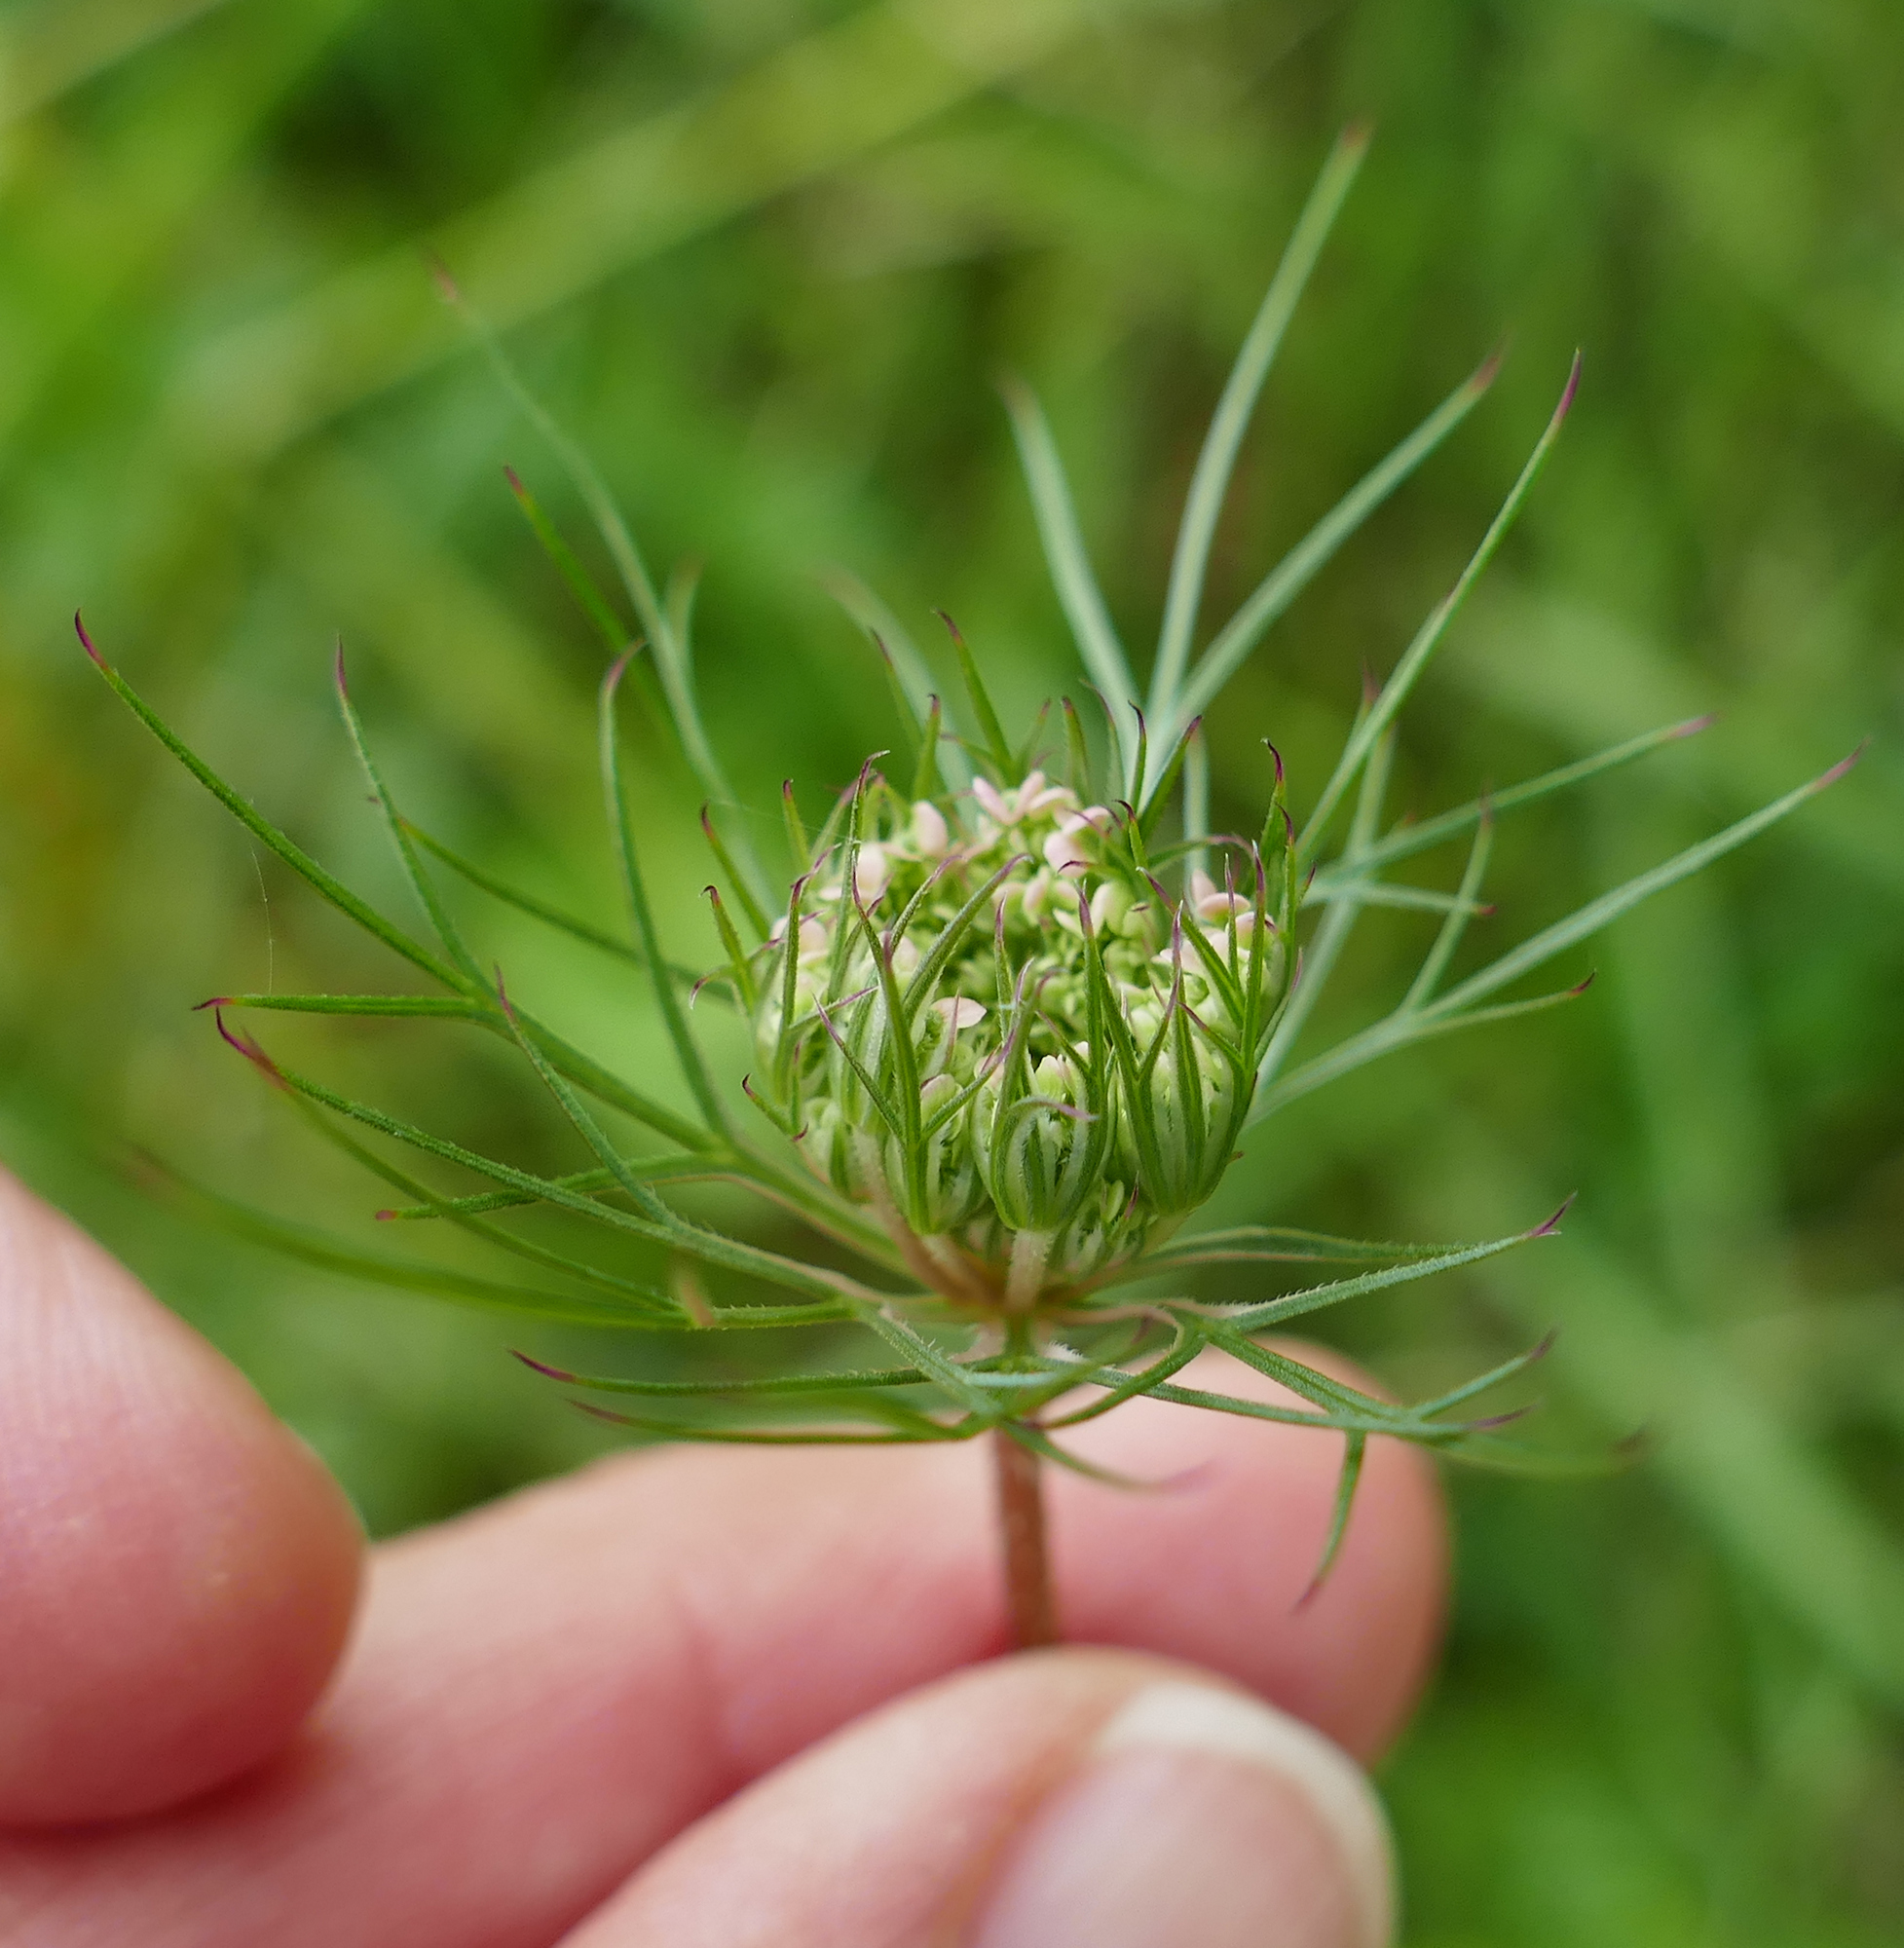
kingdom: Plantae
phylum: Tracheophyta
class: Magnoliopsida
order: Apiales
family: Apiaceae
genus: Daucus
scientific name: Daucus carota
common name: Wild carrot
